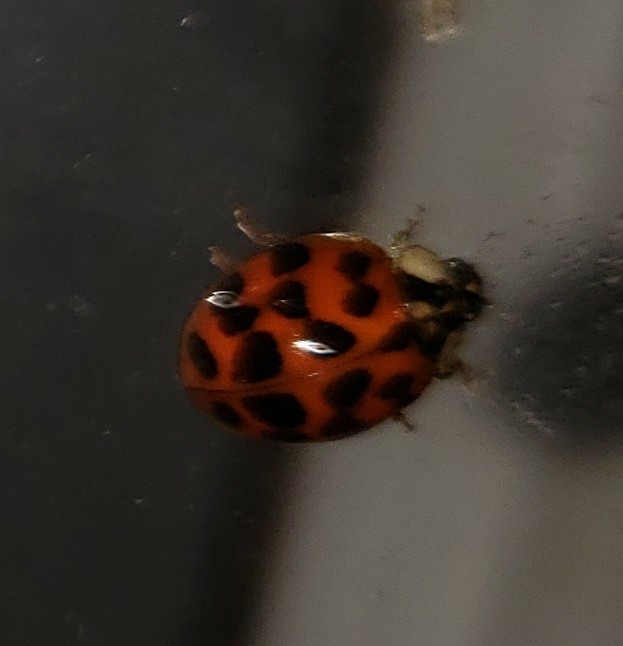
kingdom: Animalia
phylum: Arthropoda
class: Insecta
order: Coleoptera
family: Coccinellidae
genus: Harmonia
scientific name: Harmonia axyridis
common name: Harlequin ladybird
